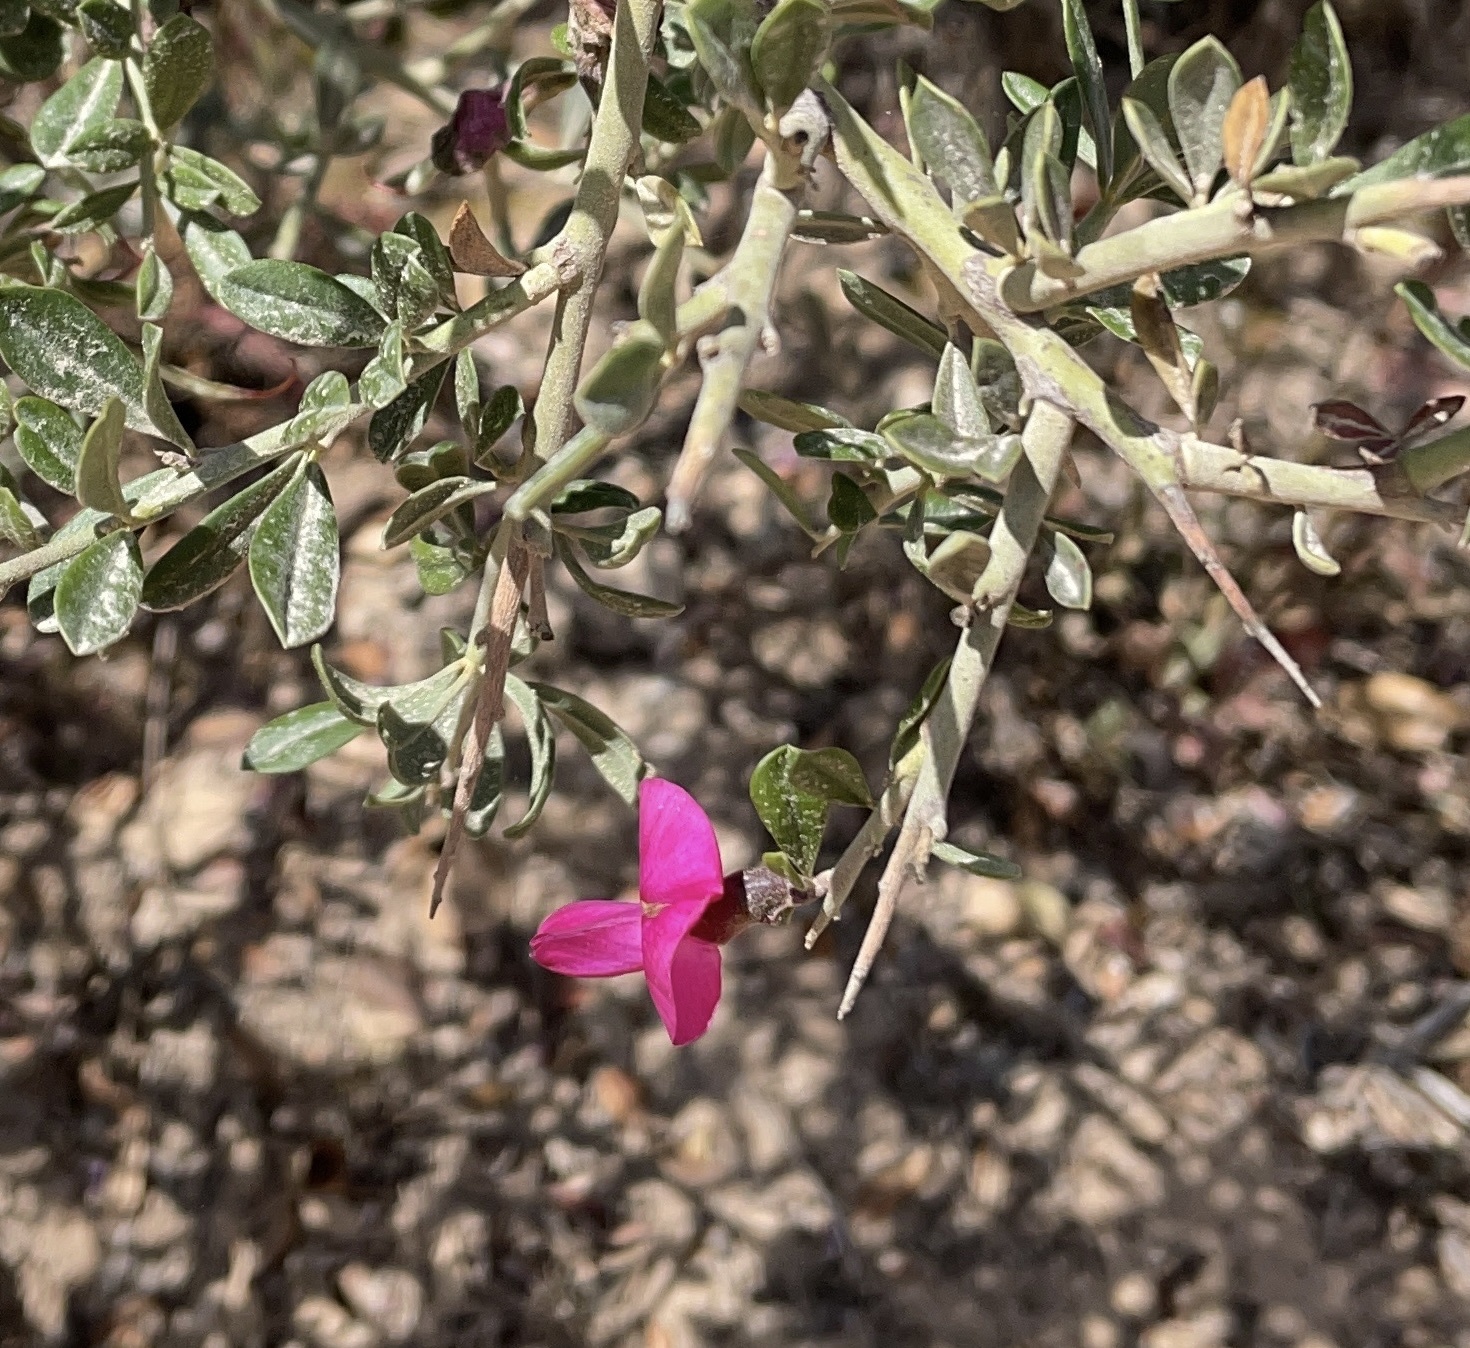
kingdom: Plantae
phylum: Tracheophyta
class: Magnoliopsida
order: Fabales
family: Fabaceae
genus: Pickeringia
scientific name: Pickeringia montana
